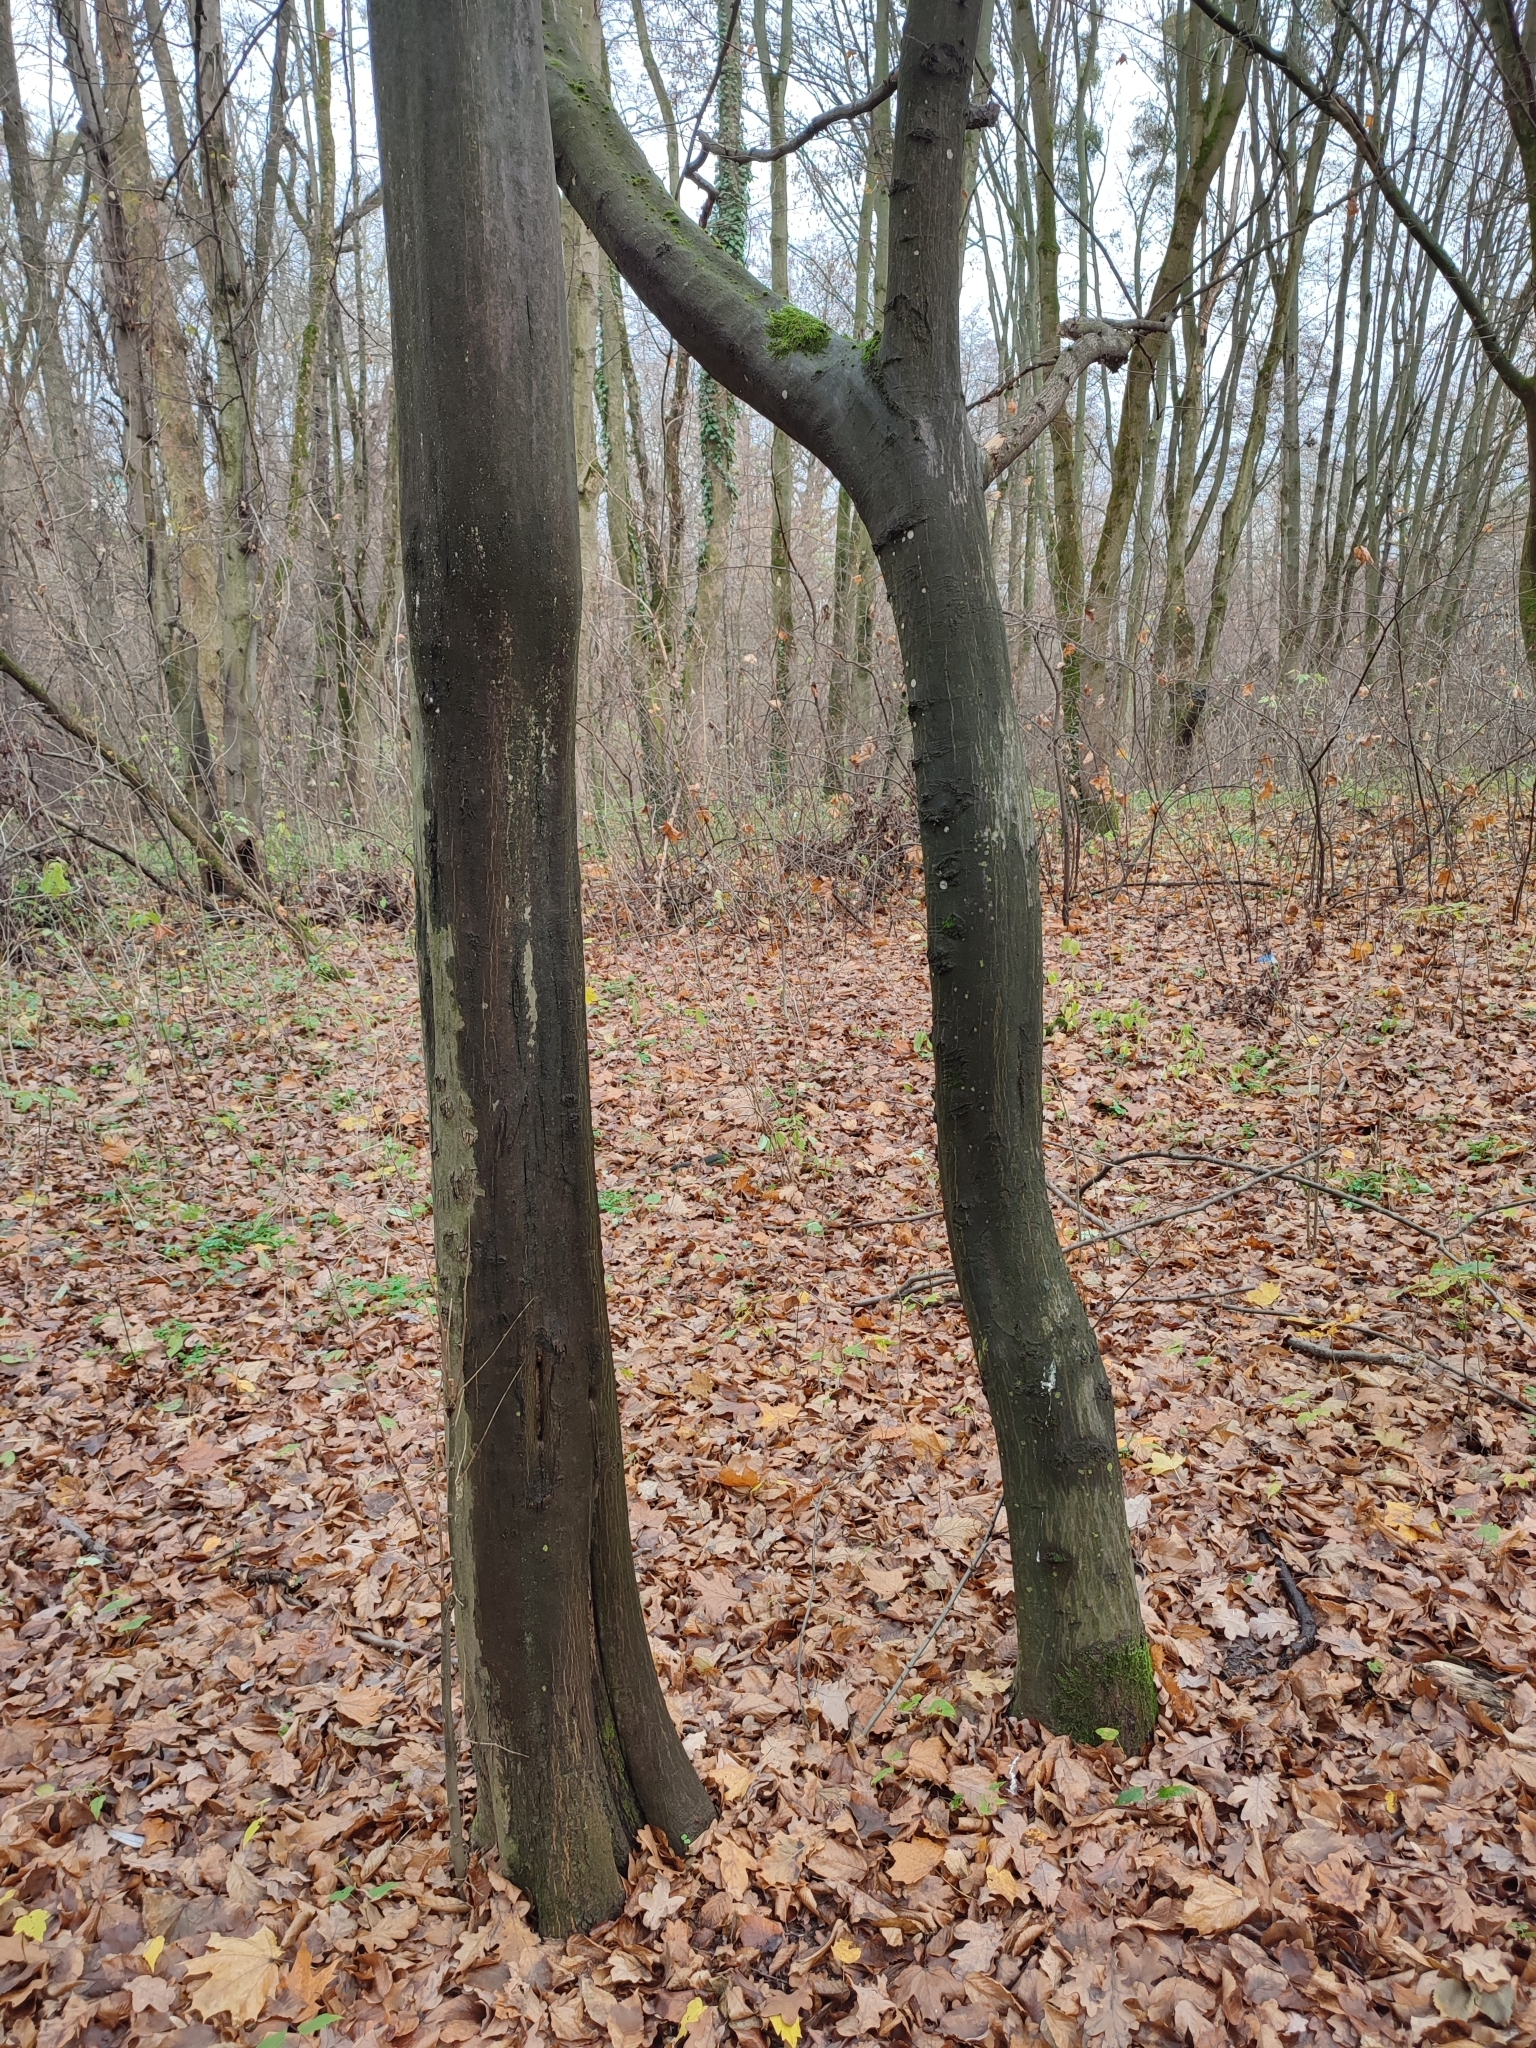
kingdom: Plantae
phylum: Tracheophyta
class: Magnoliopsida
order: Fagales
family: Betulaceae
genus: Carpinus
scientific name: Carpinus betulus
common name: Hornbeam
